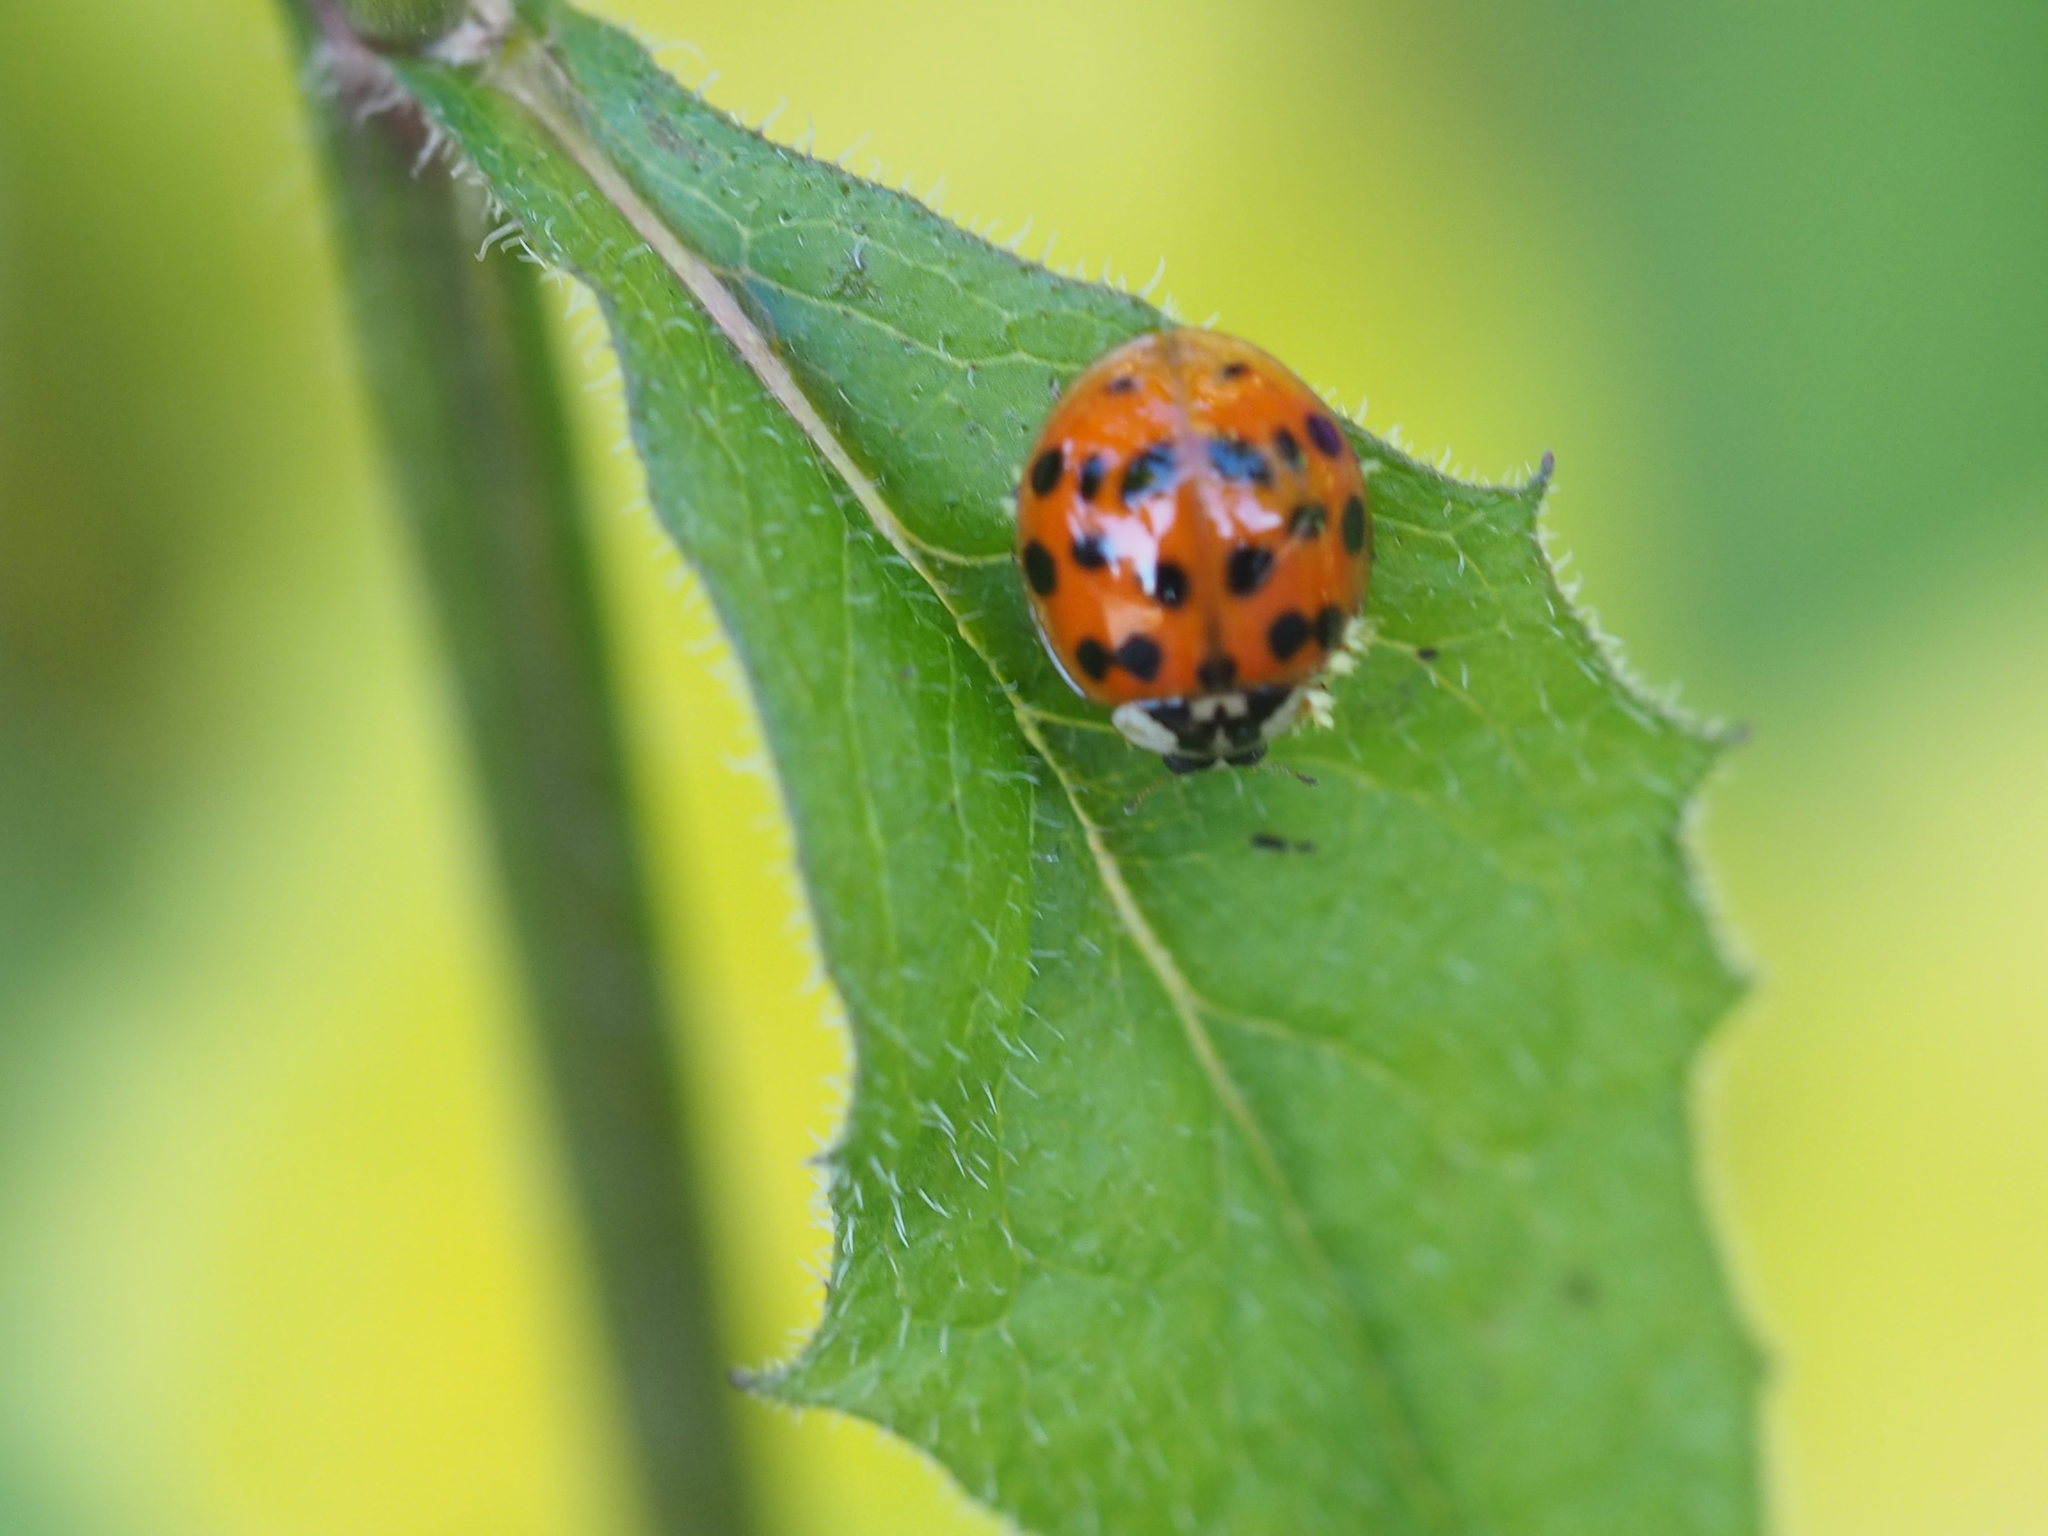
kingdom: Animalia
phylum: Arthropoda
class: Insecta
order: Coleoptera
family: Coccinellidae
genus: Harmonia
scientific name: Harmonia axyridis
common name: Harlequin ladybird
